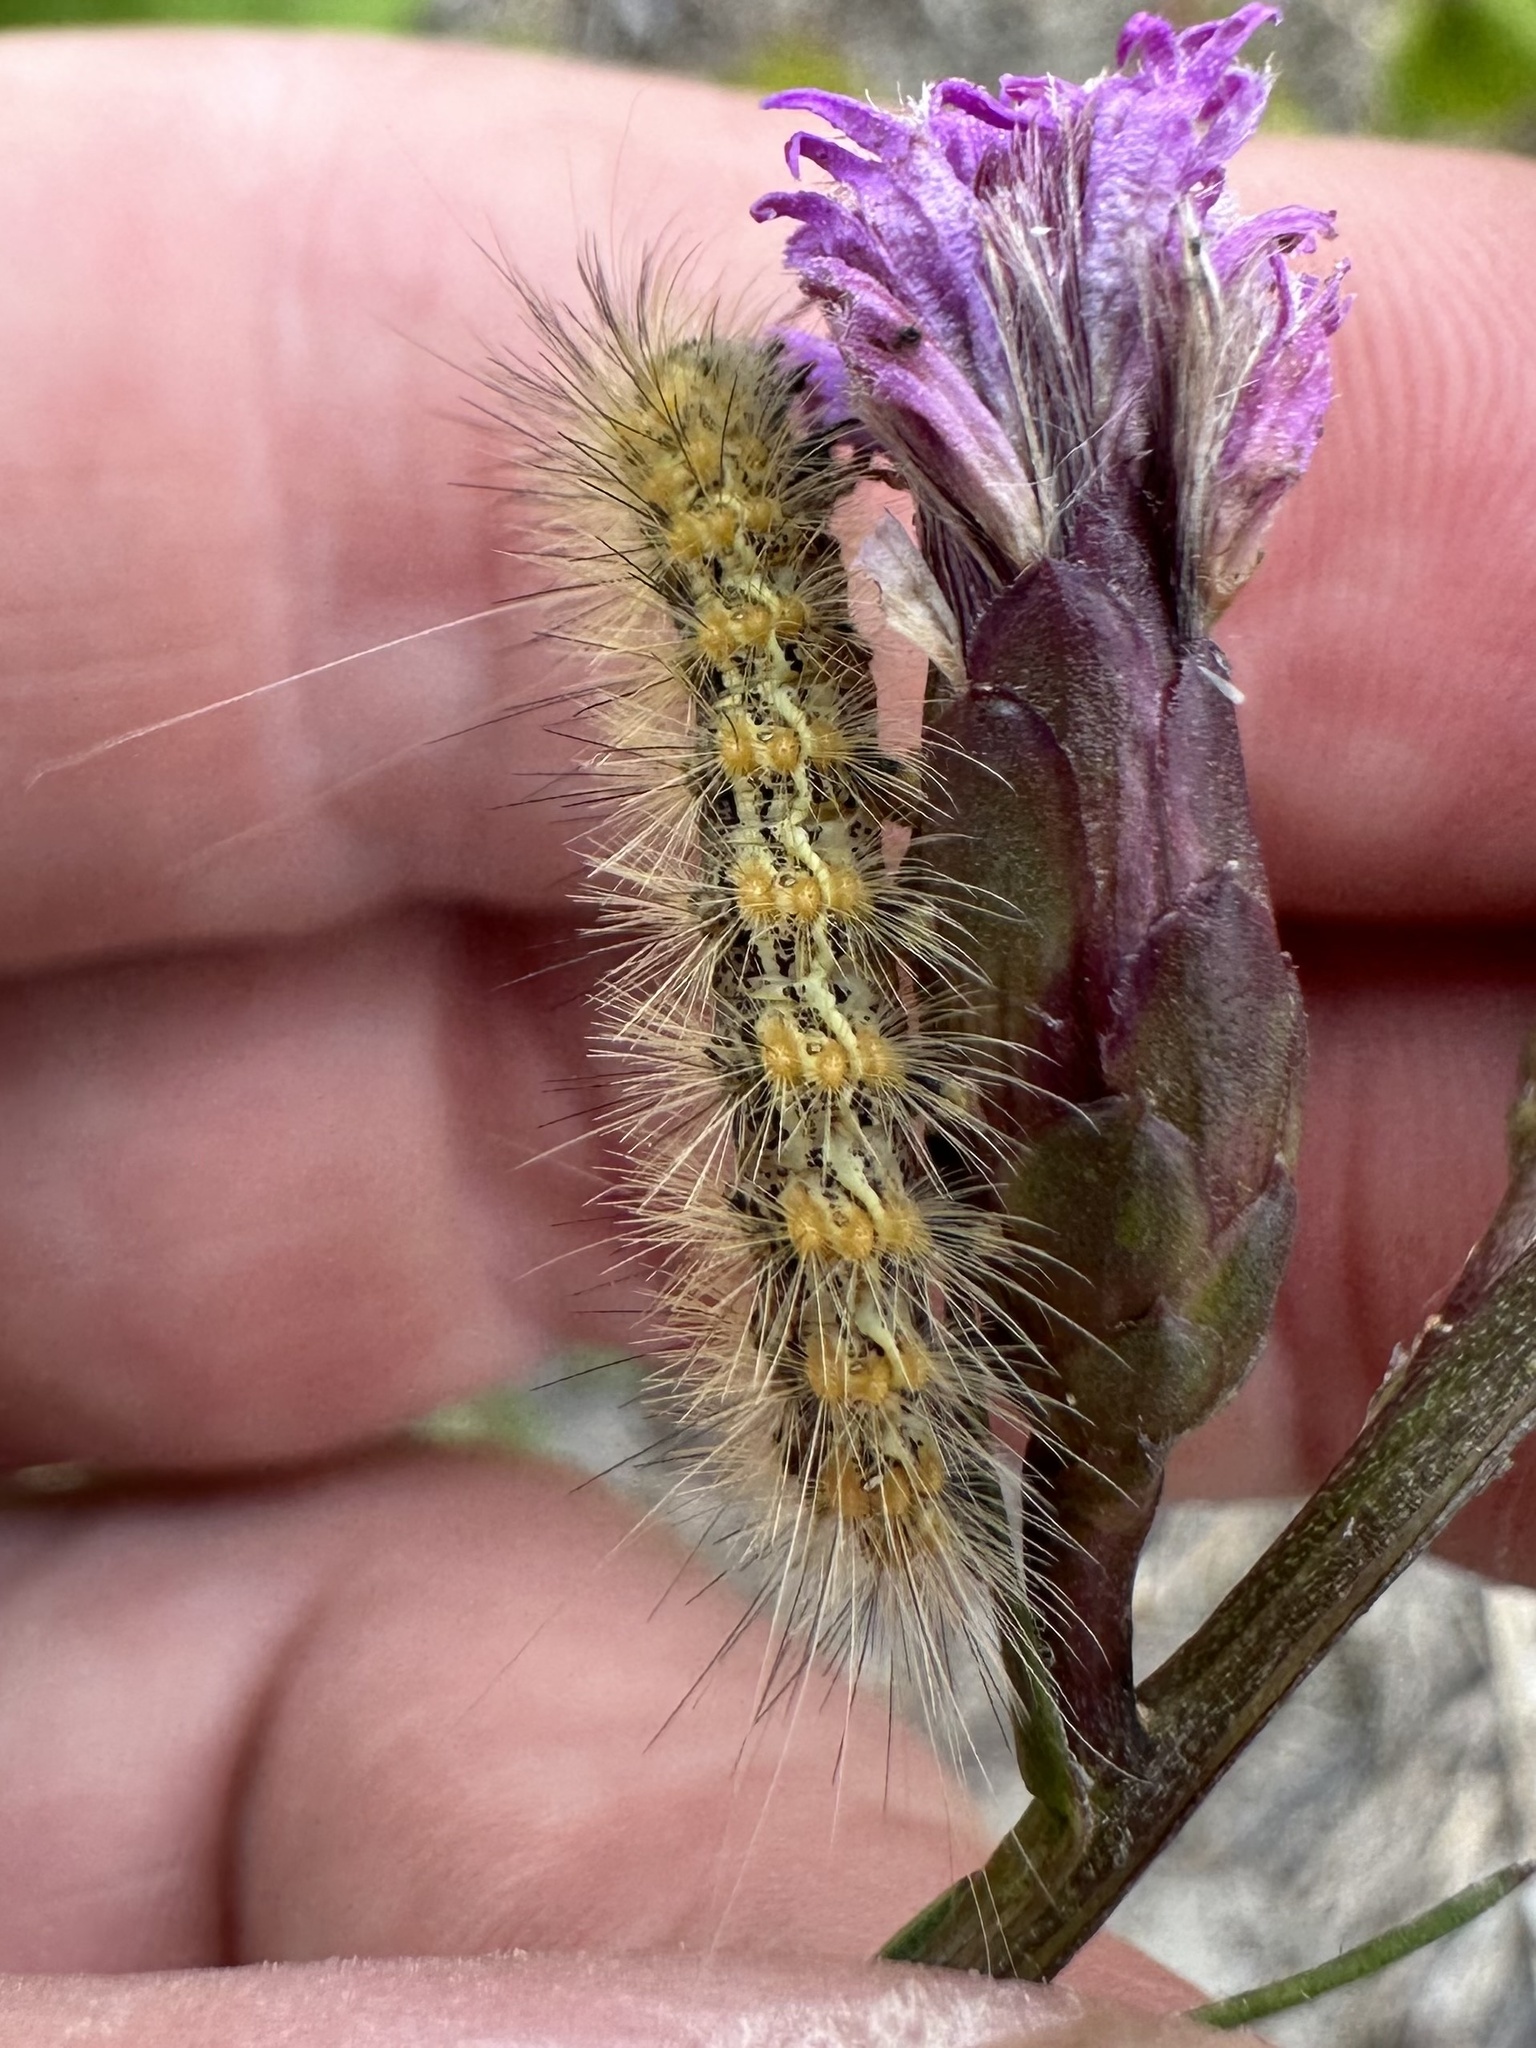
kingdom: Animalia
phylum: Arthropoda
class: Insecta
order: Lepidoptera
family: Erebidae
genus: Estigmene
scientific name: Estigmene acrea
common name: Salt marsh moth
